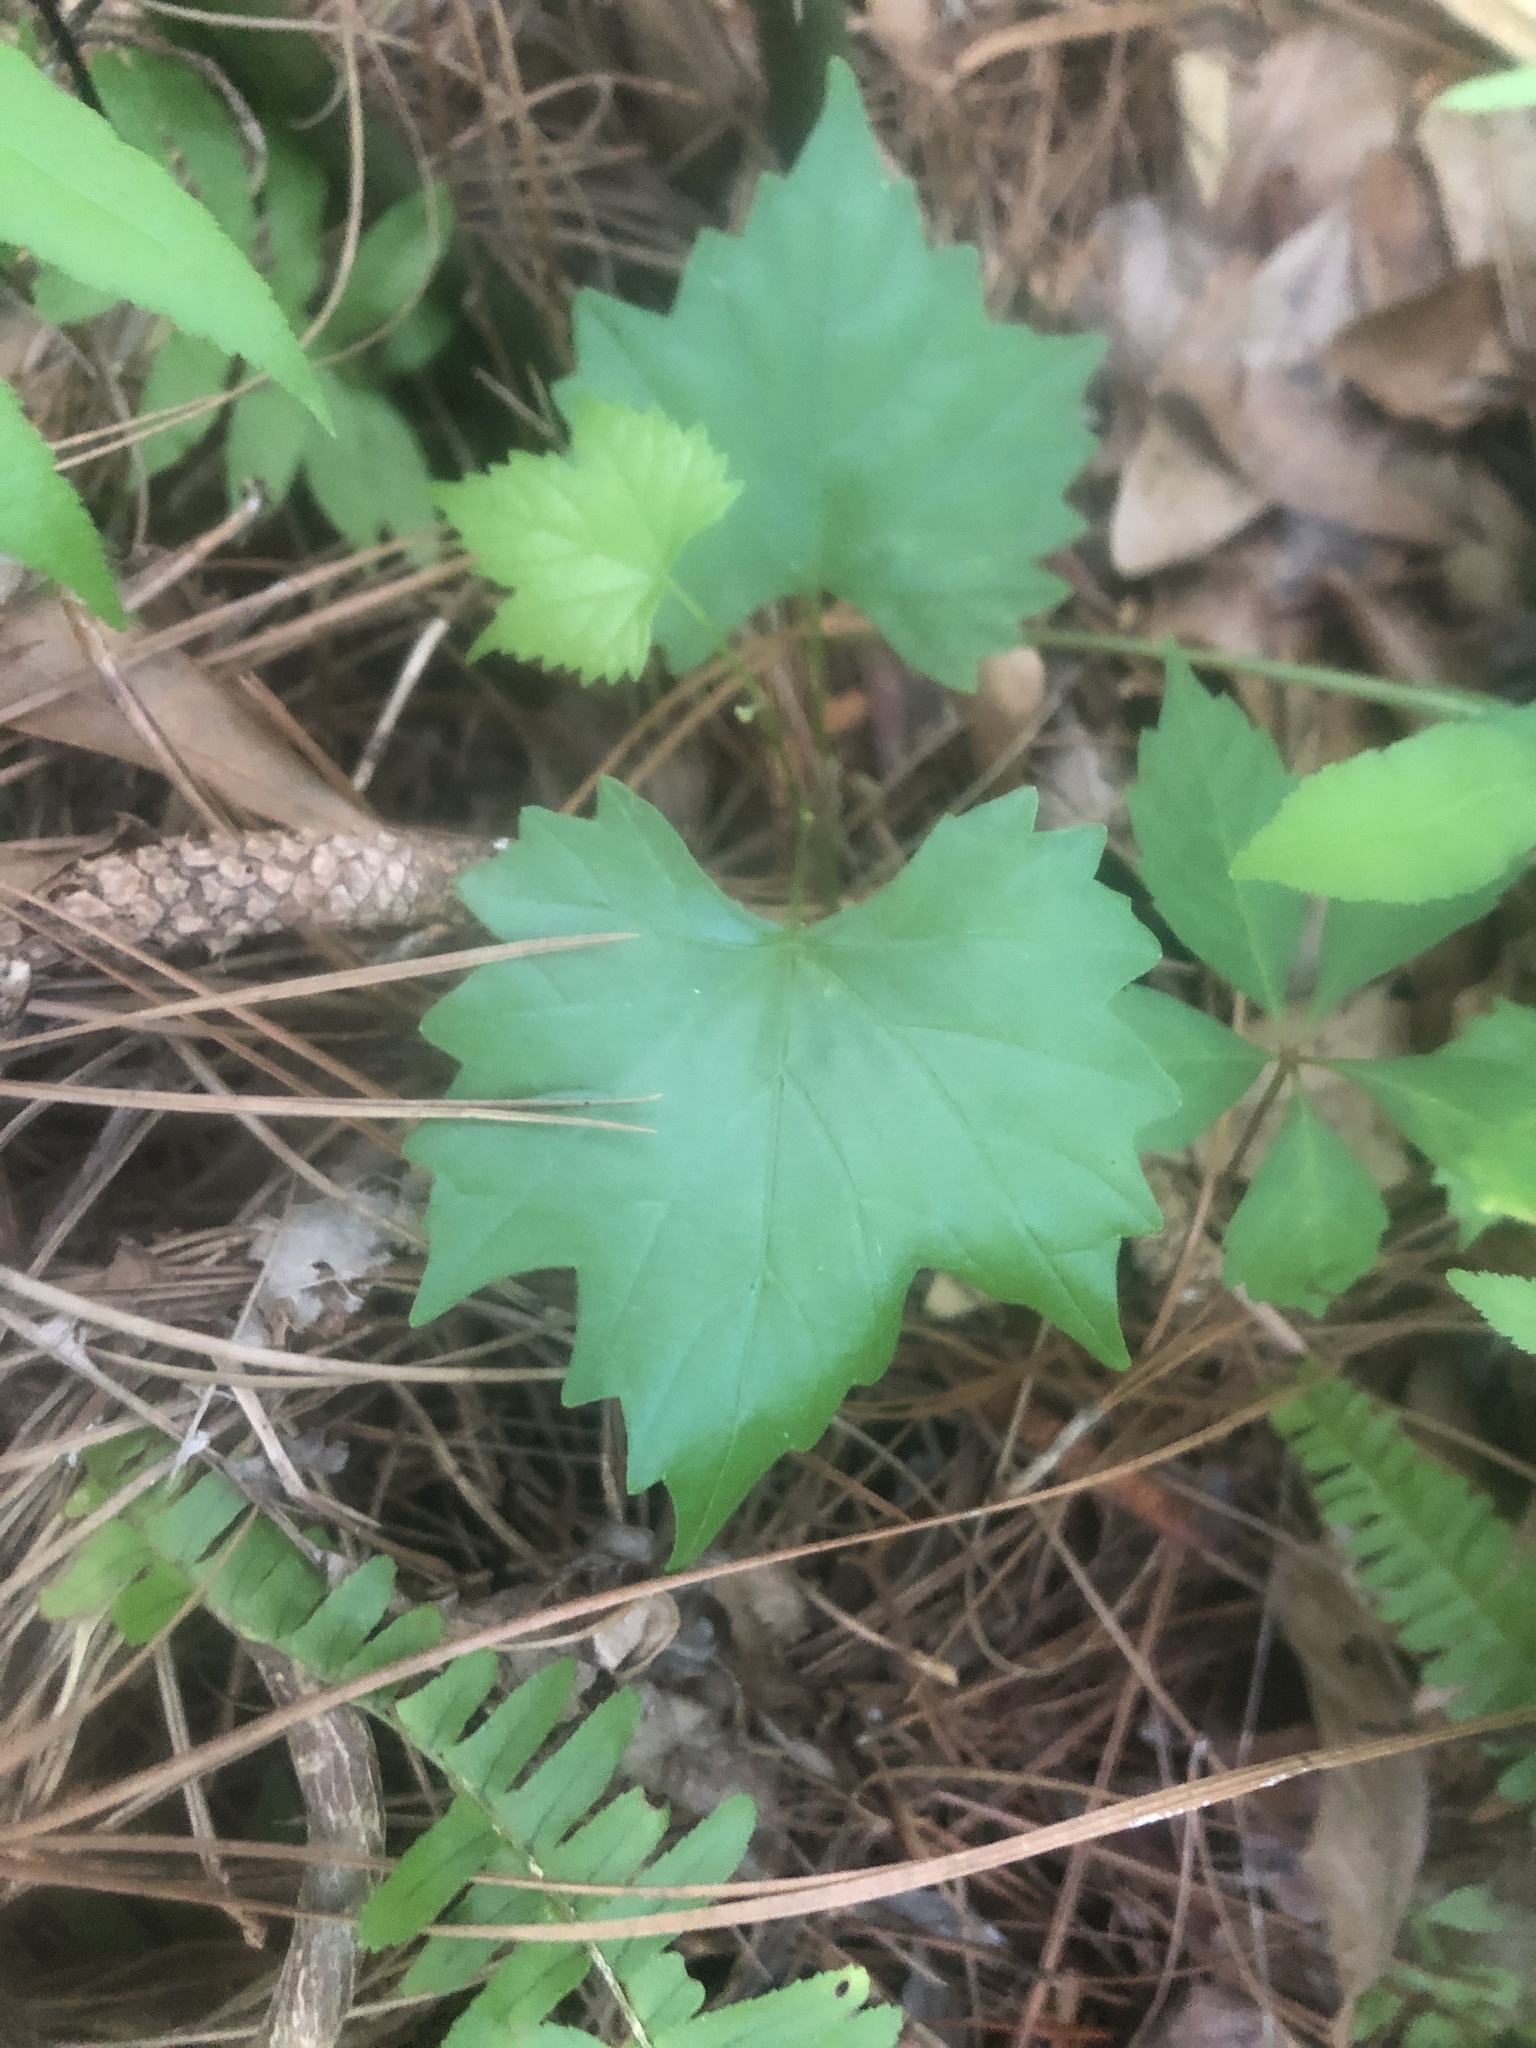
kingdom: Plantae
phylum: Tracheophyta
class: Magnoliopsida
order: Vitales
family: Vitaceae
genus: Vitis
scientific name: Vitis rotundifolia
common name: Muscadine grape
